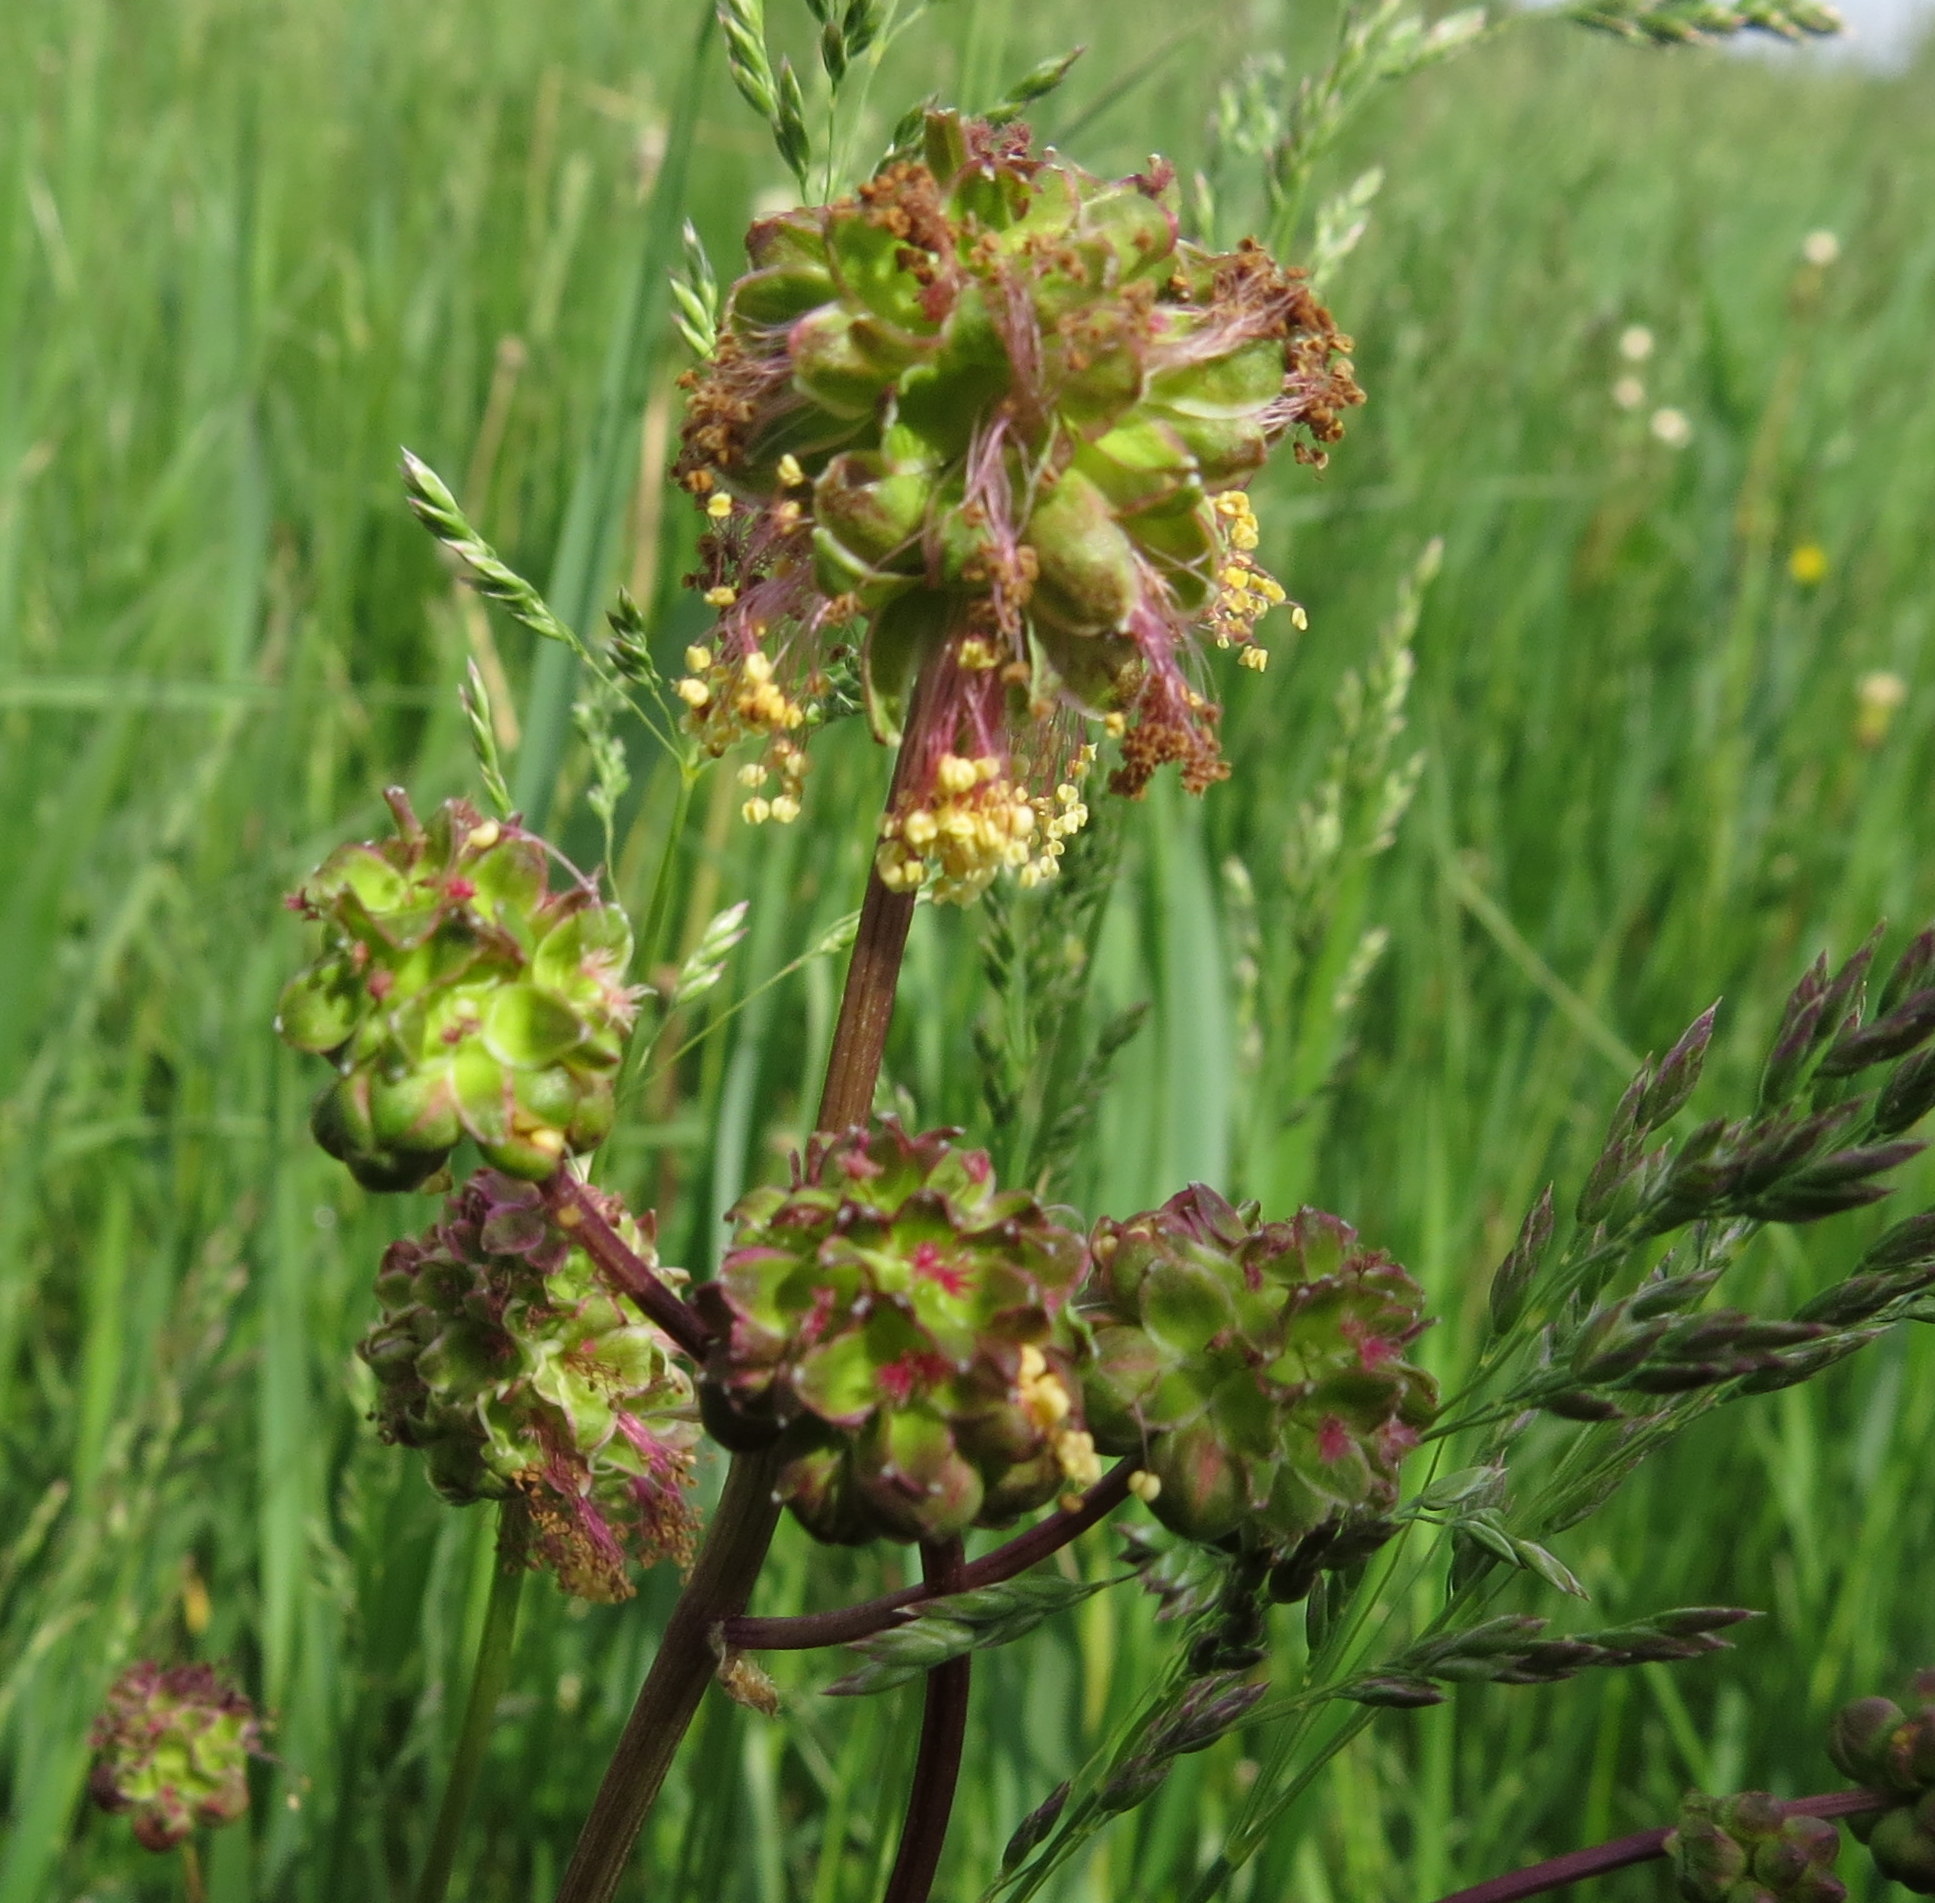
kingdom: Plantae
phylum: Tracheophyta
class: Magnoliopsida
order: Rosales
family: Rosaceae
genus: Poterium
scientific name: Poterium sanguisorba
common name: Salad burnet
